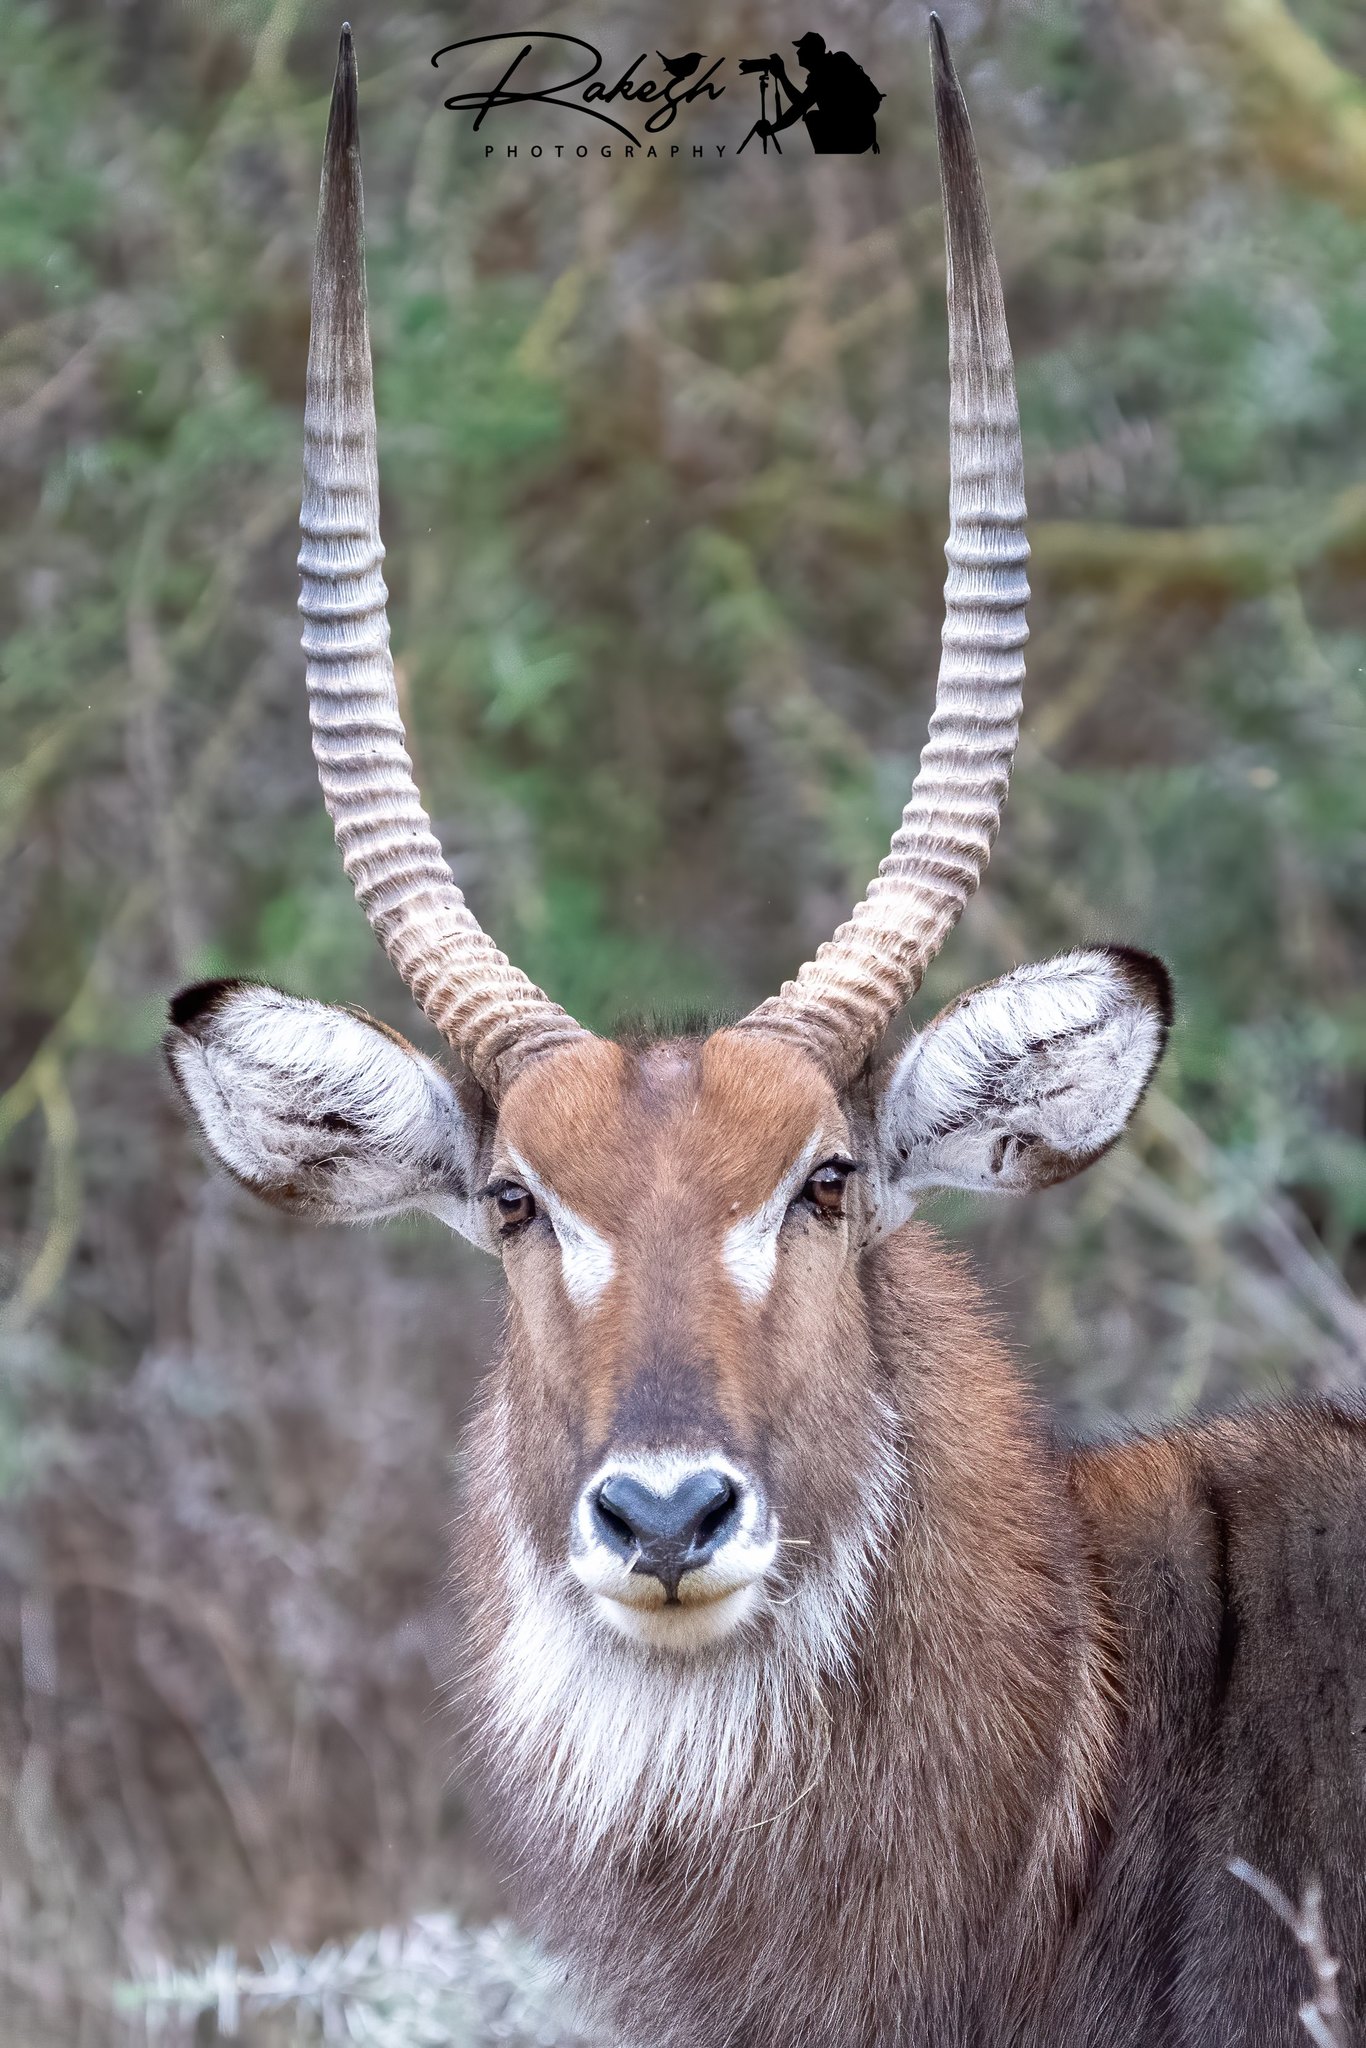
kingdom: Animalia
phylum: Chordata
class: Mammalia
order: Artiodactyla
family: Bovidae
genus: Kobus
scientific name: Kobus ellipsiprymnus
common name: Waterbuck
